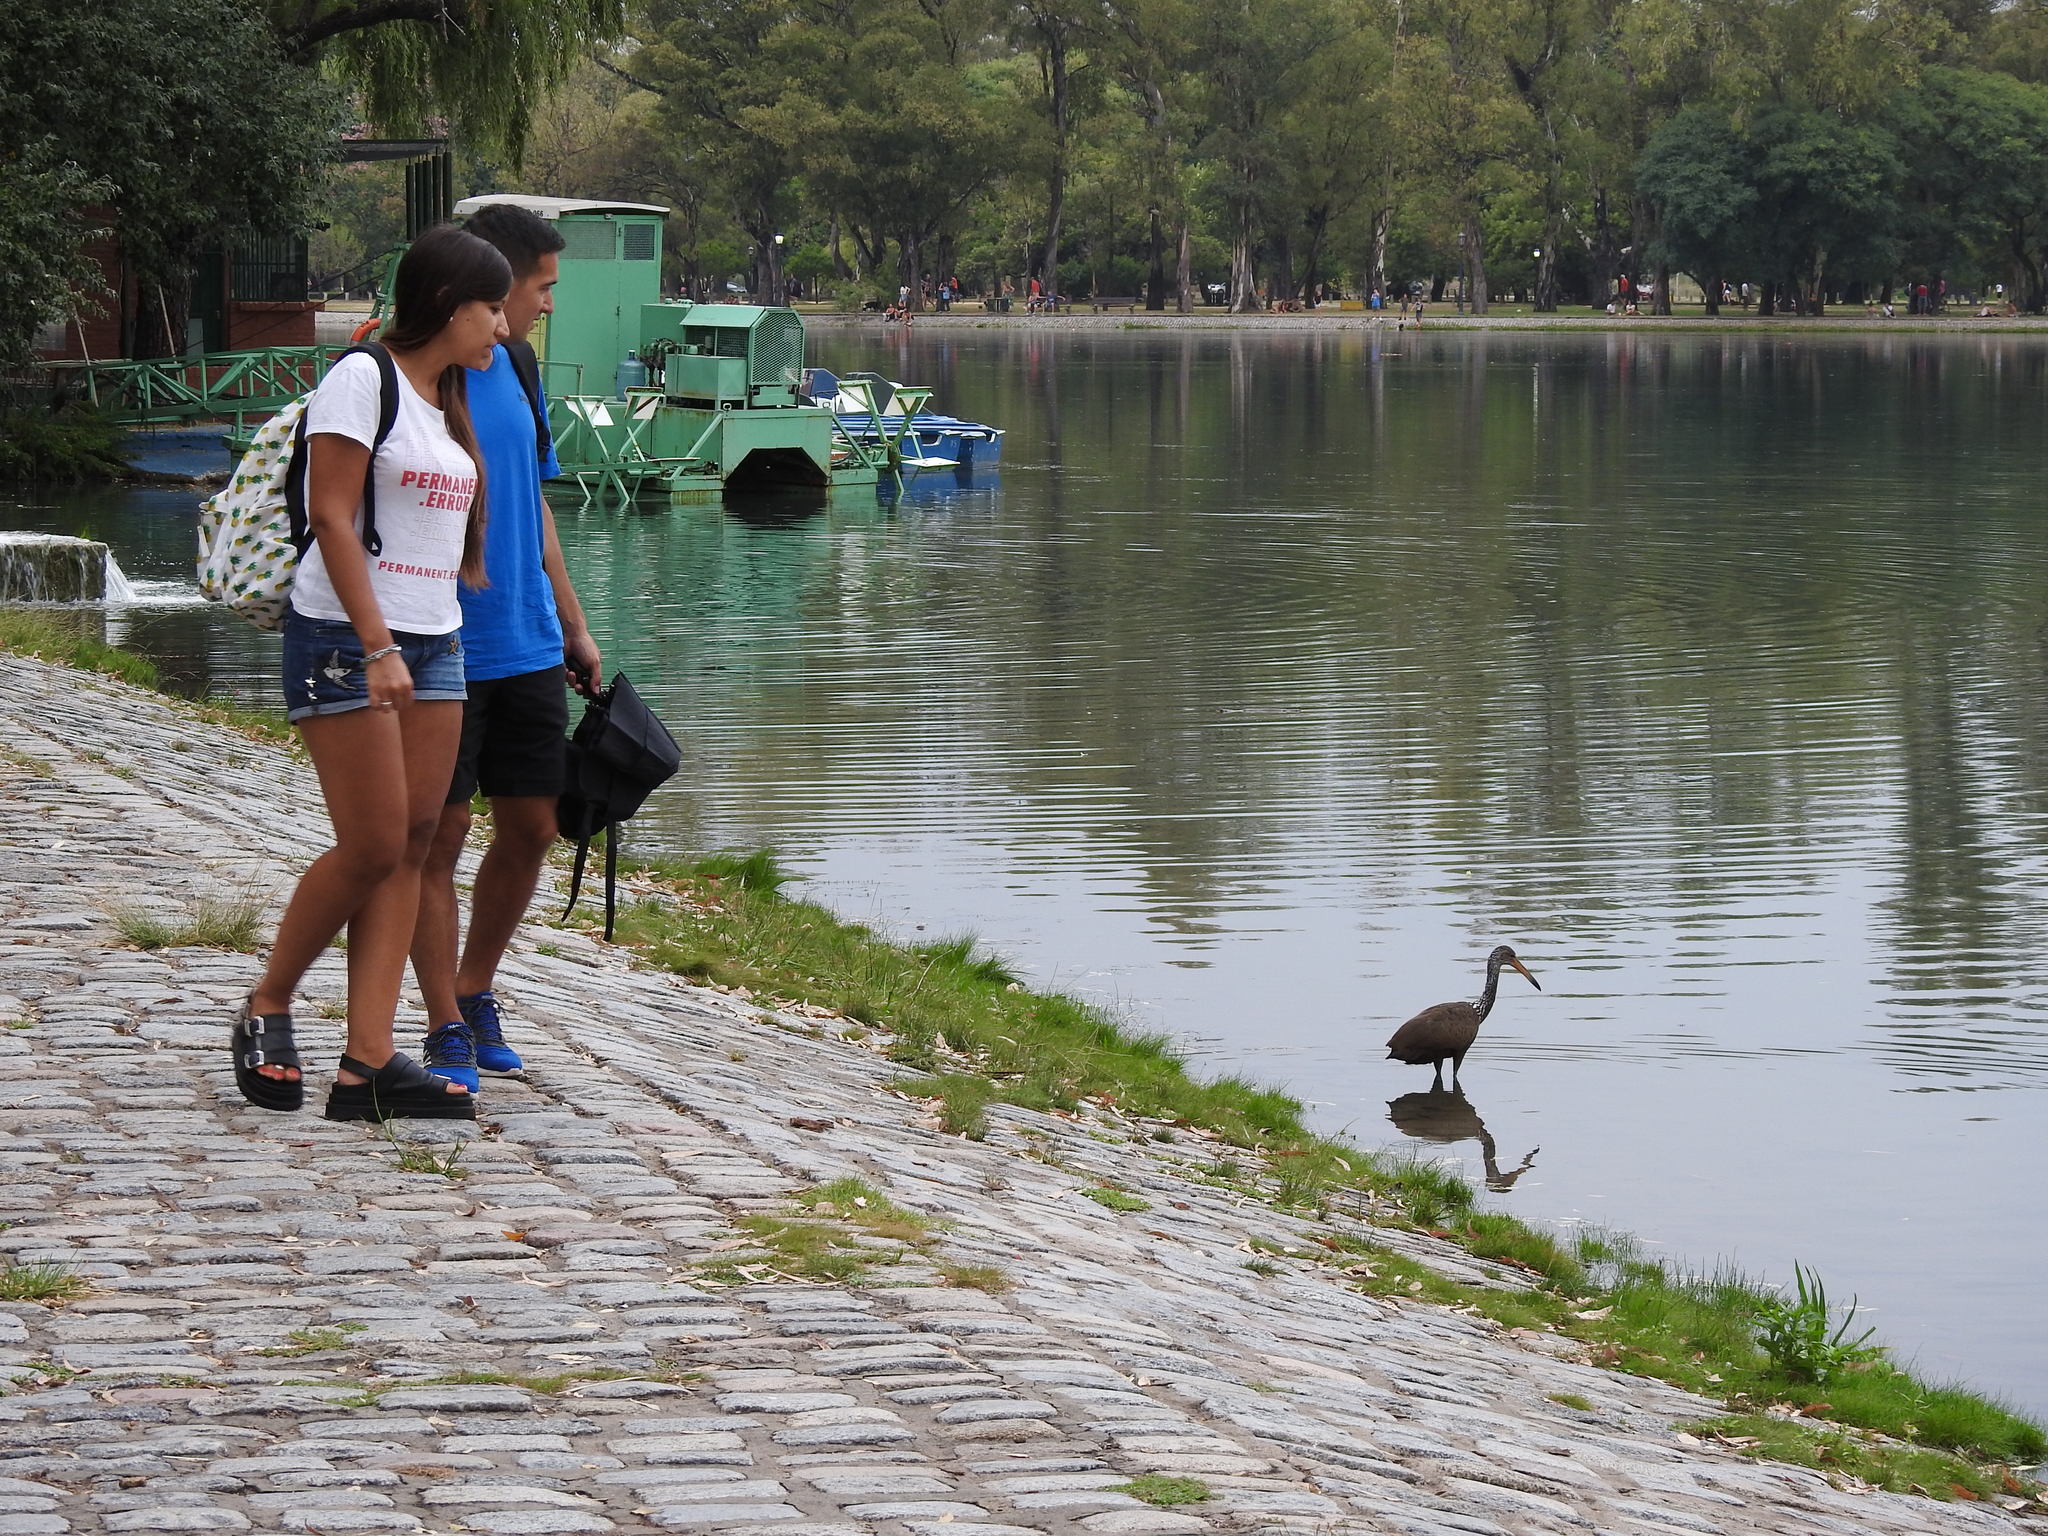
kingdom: Animalia
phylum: Chordata
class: Aves
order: Gruiformes
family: Aramidae
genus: Aramus
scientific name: Aramus guarauna
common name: Limpkin
